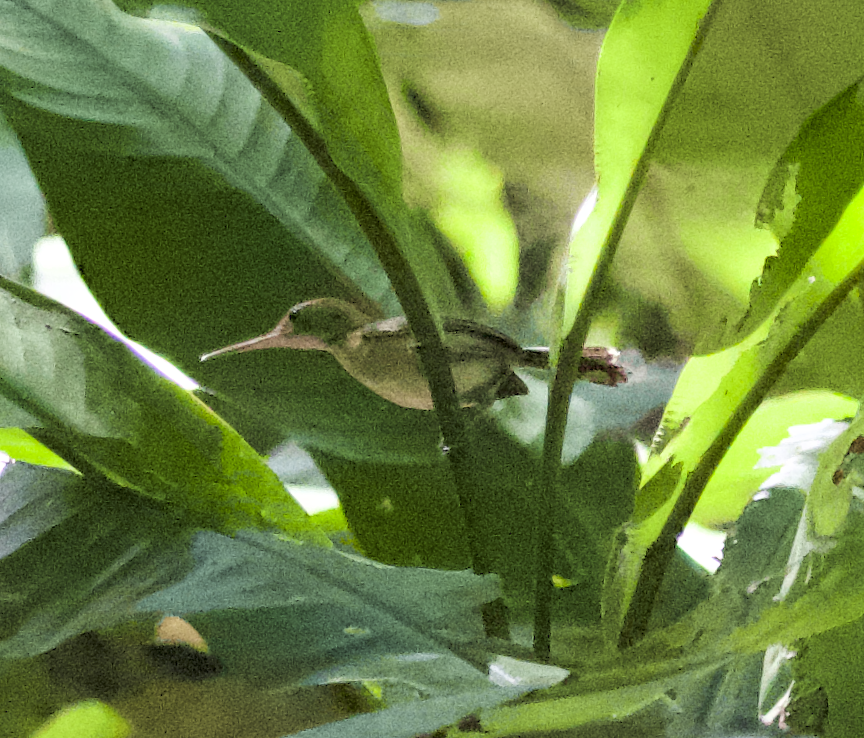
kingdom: Animalia
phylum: Chordata
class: Aves
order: Passeriformes
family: Polioptilidae
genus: Ramphocaenus
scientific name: Ramphocaenus melanurus
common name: Long-billed gnatwren
